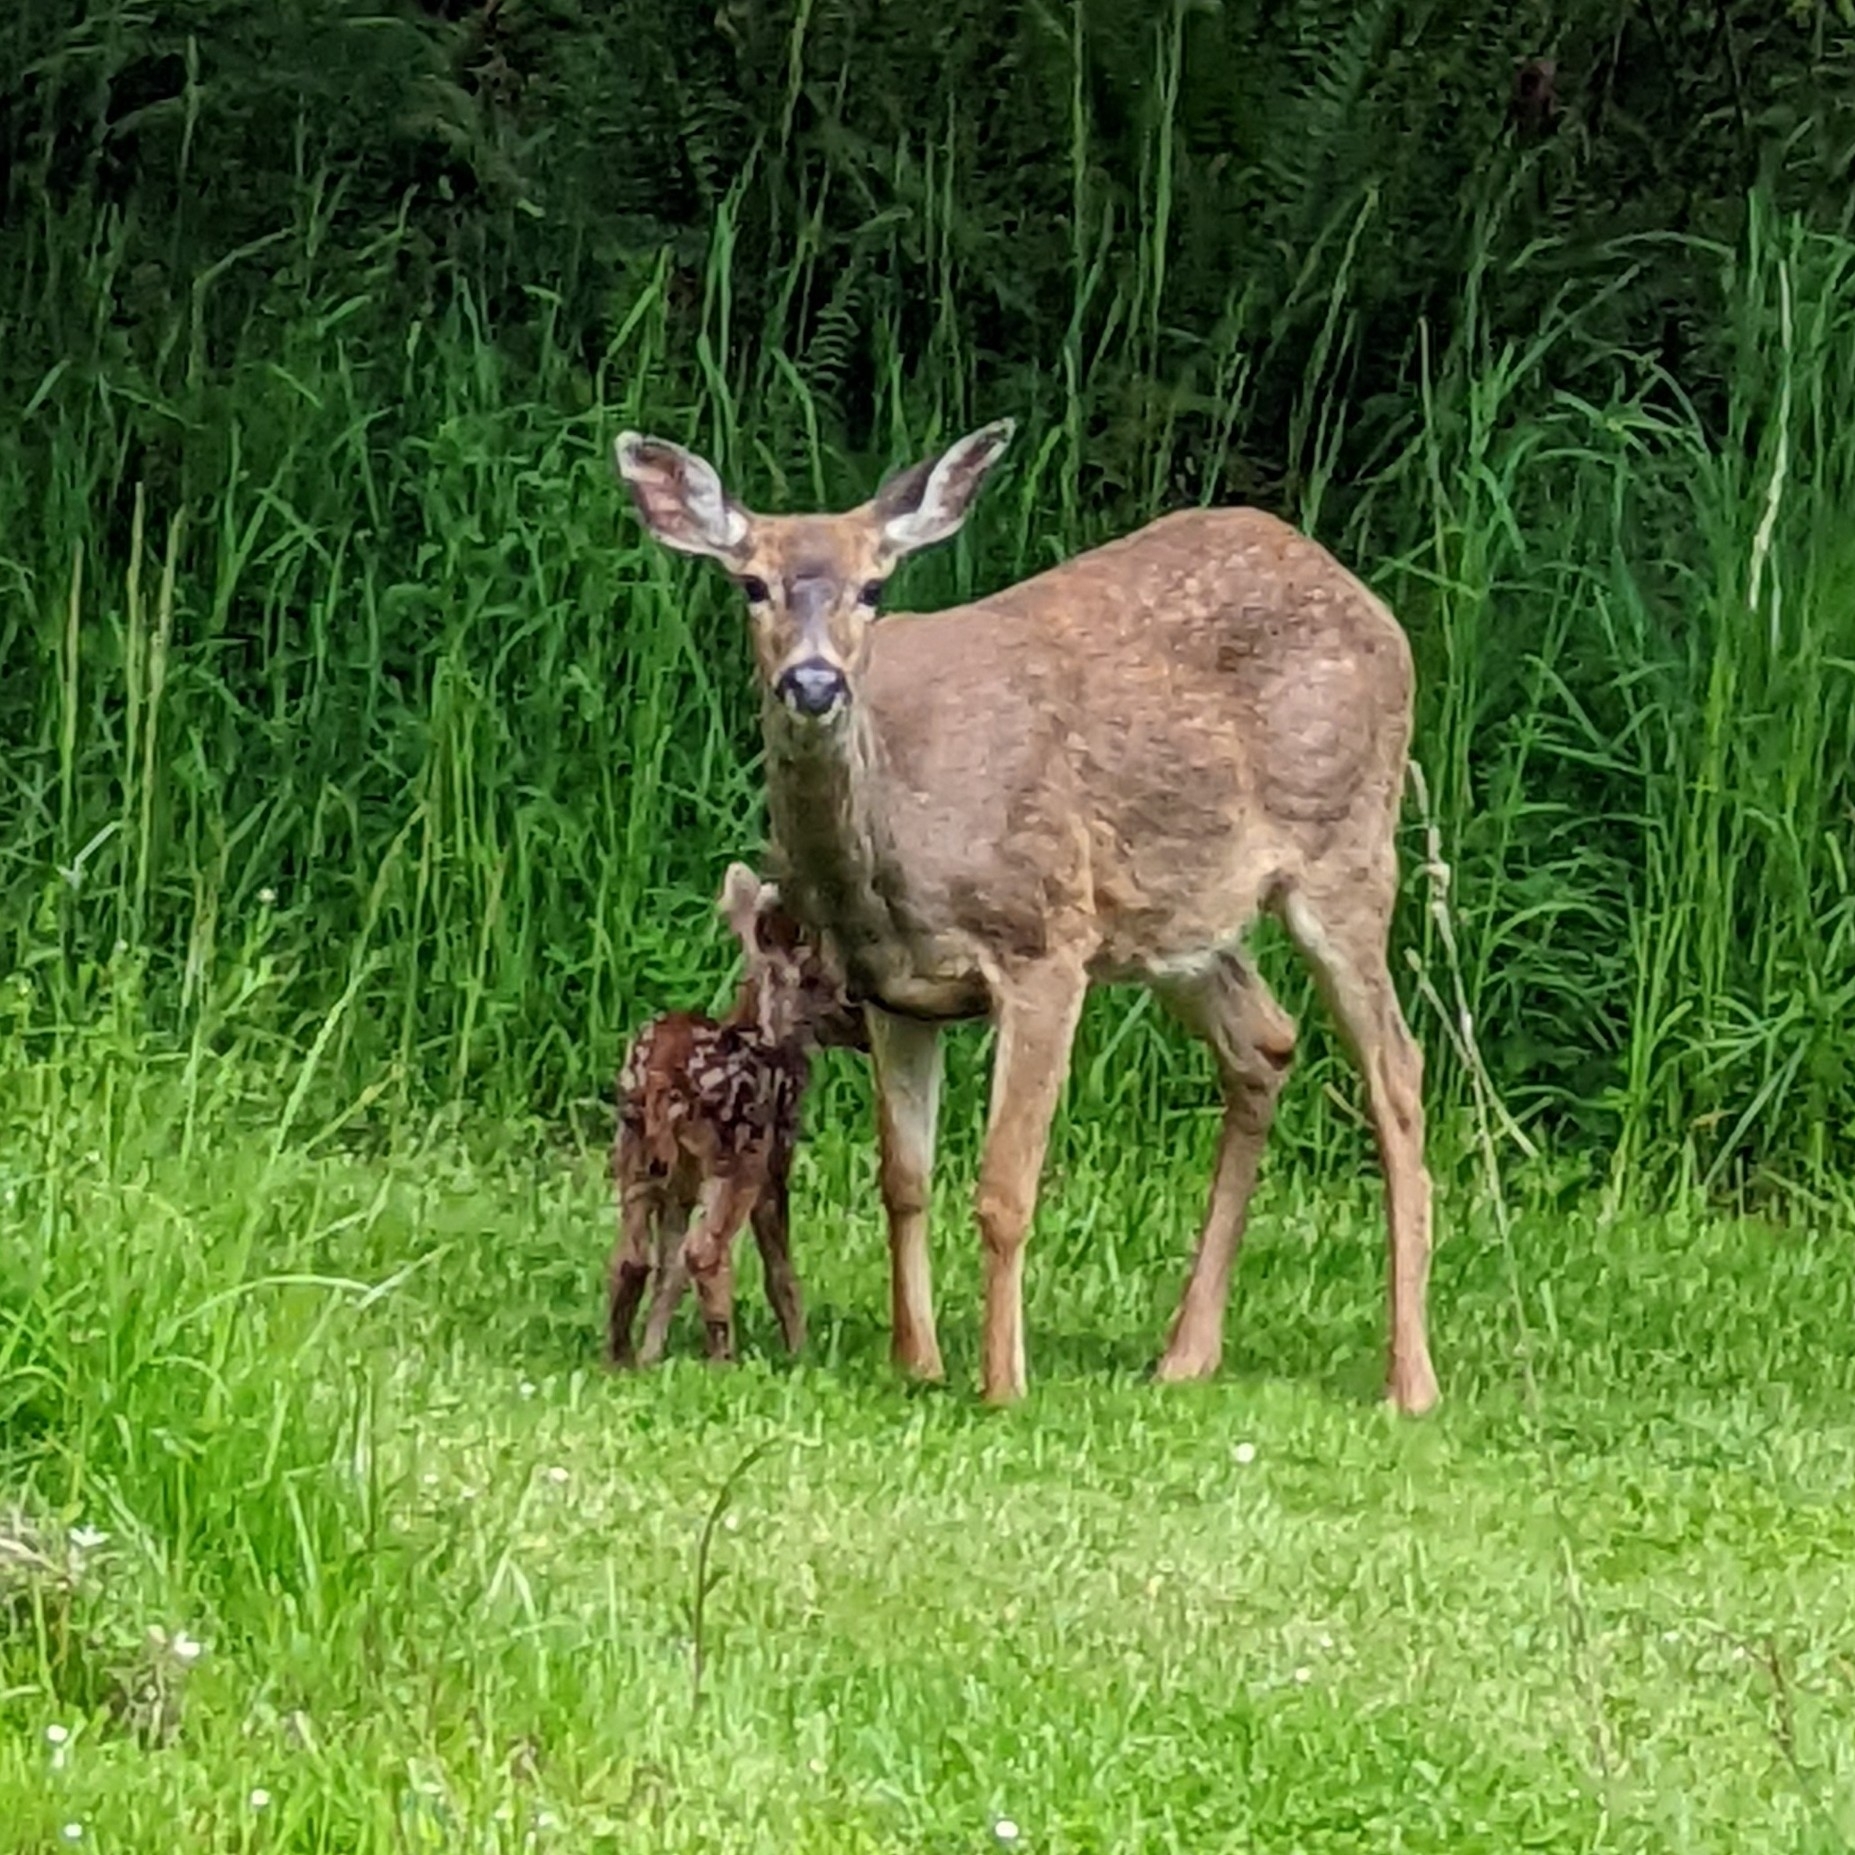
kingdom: Animalia
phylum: Chordata
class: Mammalia
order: Artiodactyla
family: Cervidae
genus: Odocoileus
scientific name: Odocoileus hemionus
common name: Mule deer
